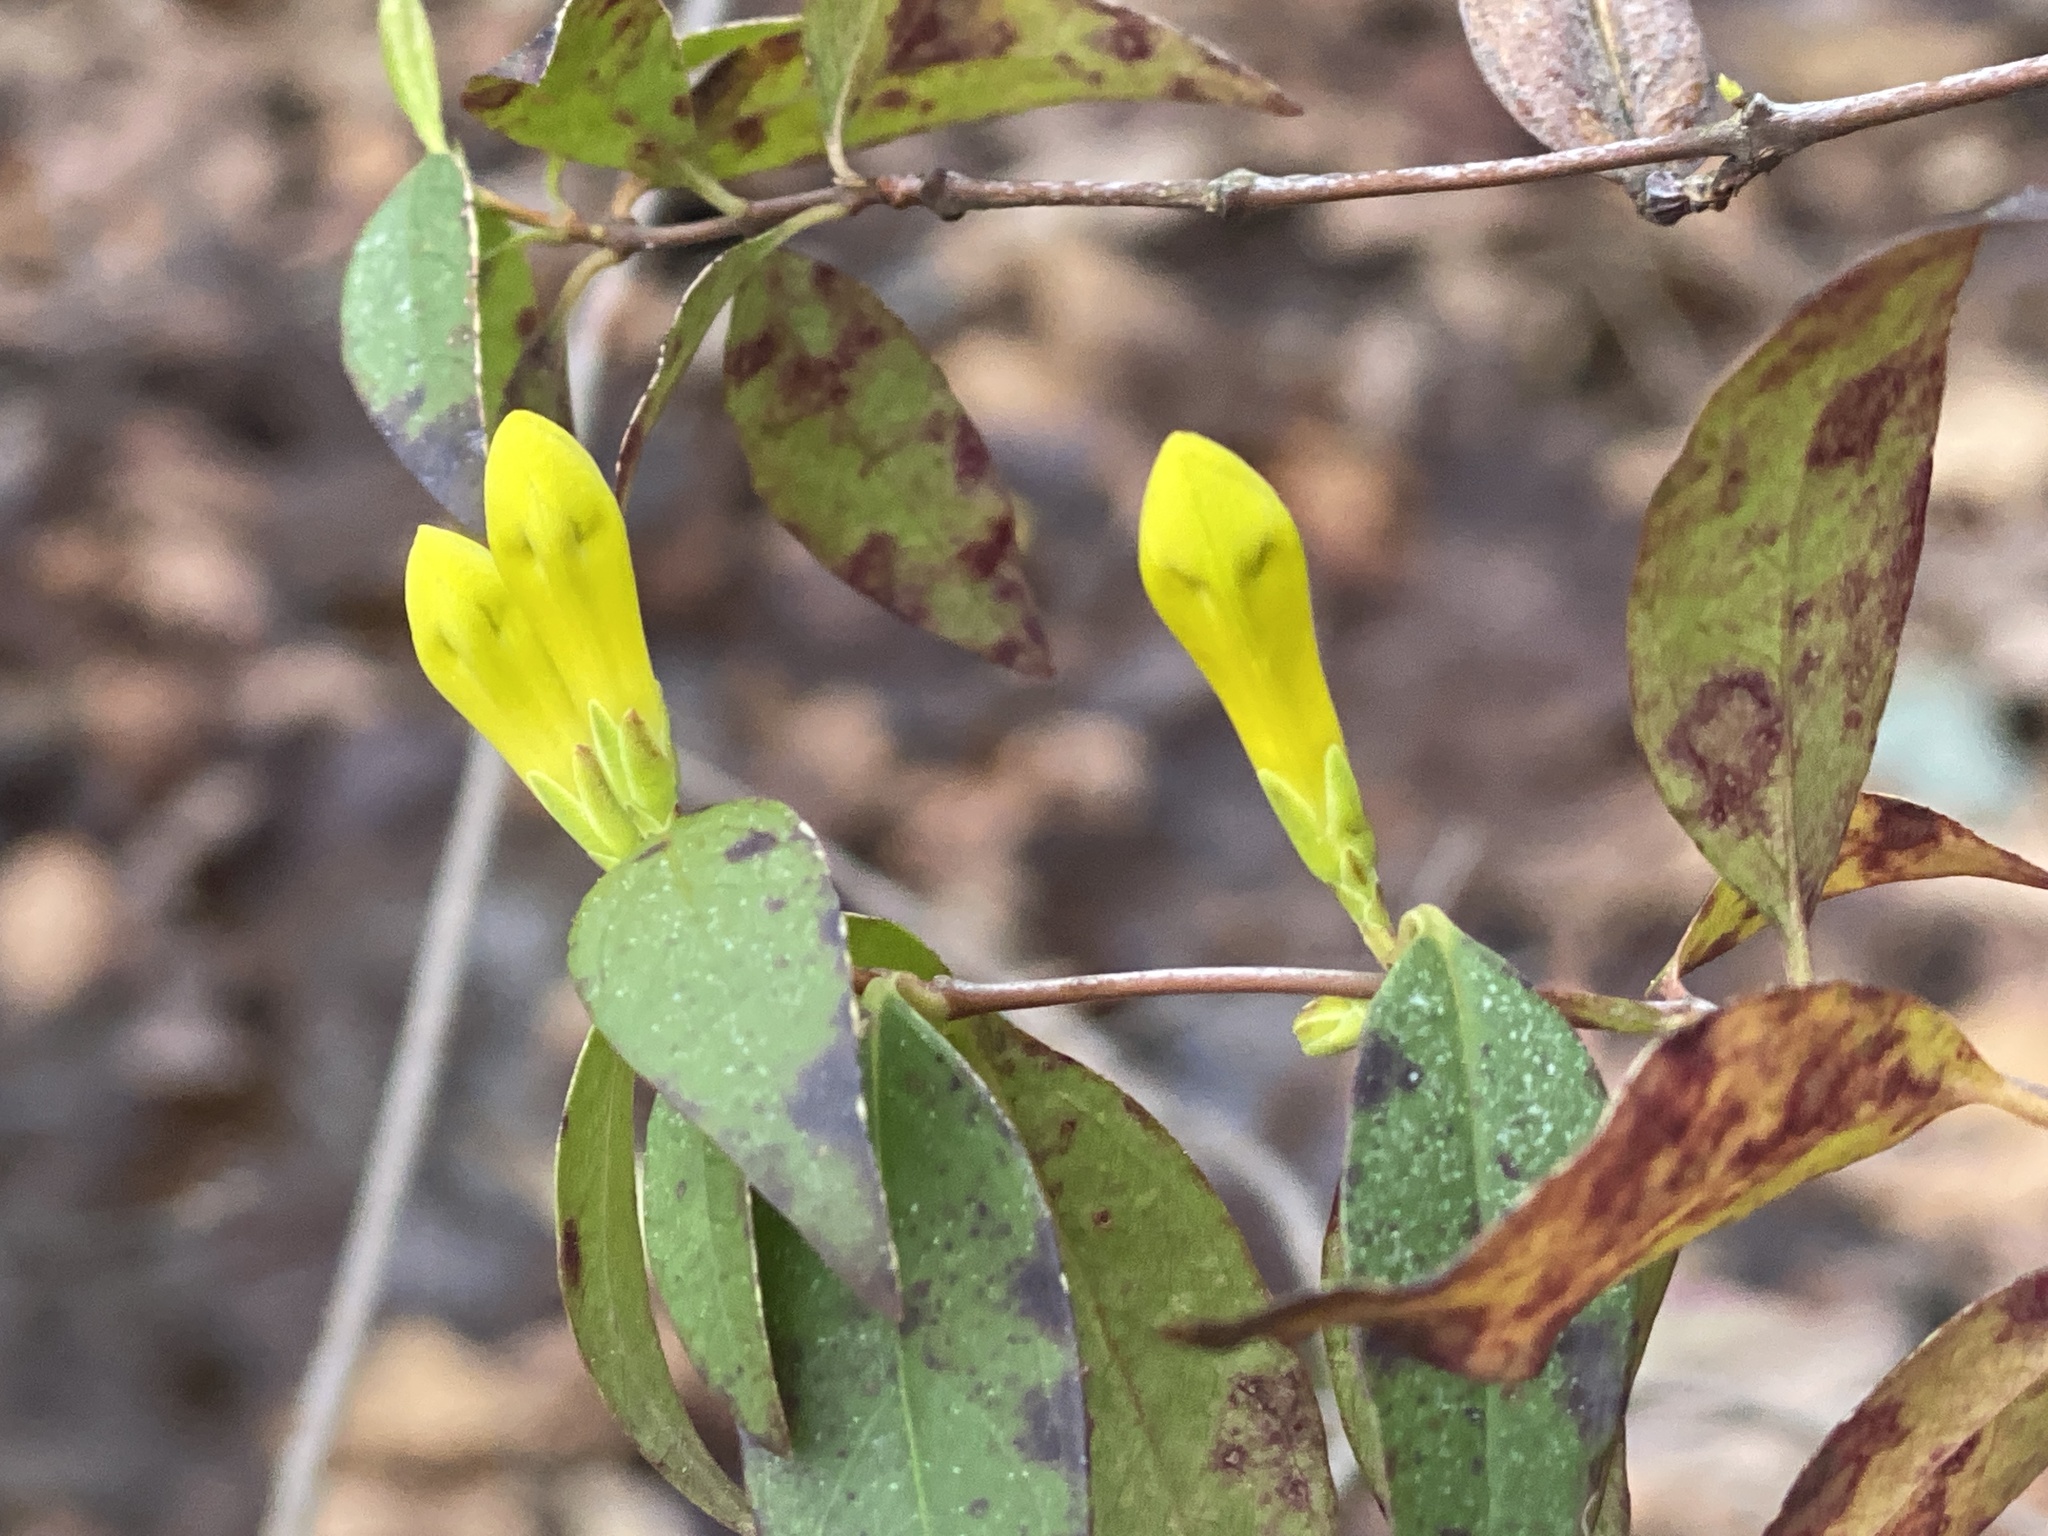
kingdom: Plantae
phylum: Tracheophyta
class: Magnoliopsida
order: Gentianales
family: Gelsemiaceae
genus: Gelsemium
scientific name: Gelsemium sempervirens
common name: Carolina-jasmine
